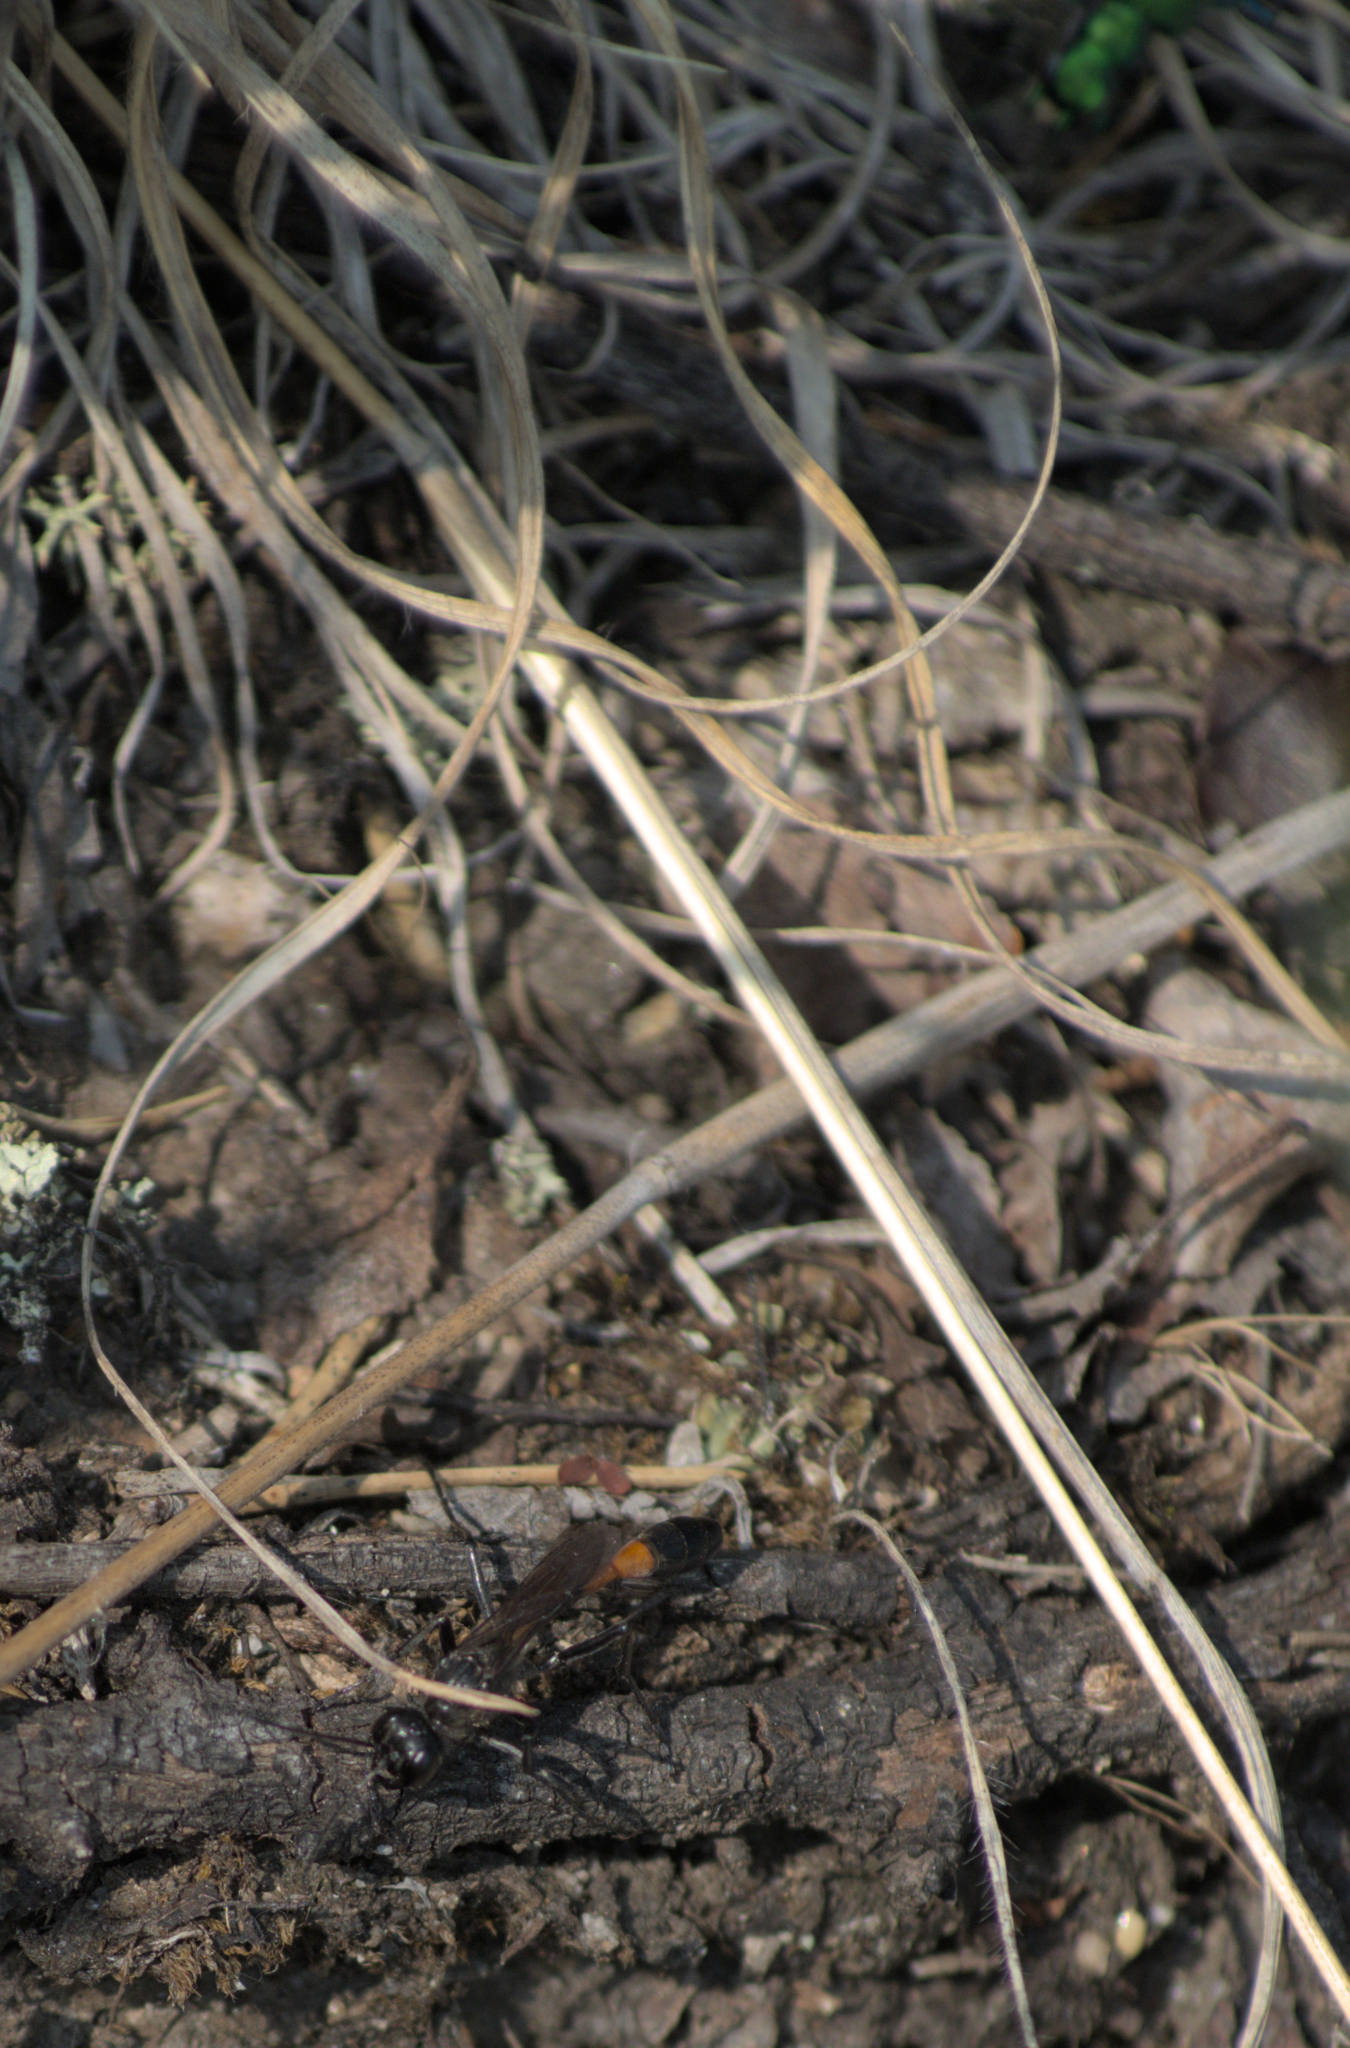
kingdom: Animalia
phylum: Arthropoda
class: Insecta
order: Coleoptera
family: Carabidae
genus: Cicindela
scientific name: Cicindela denikei
